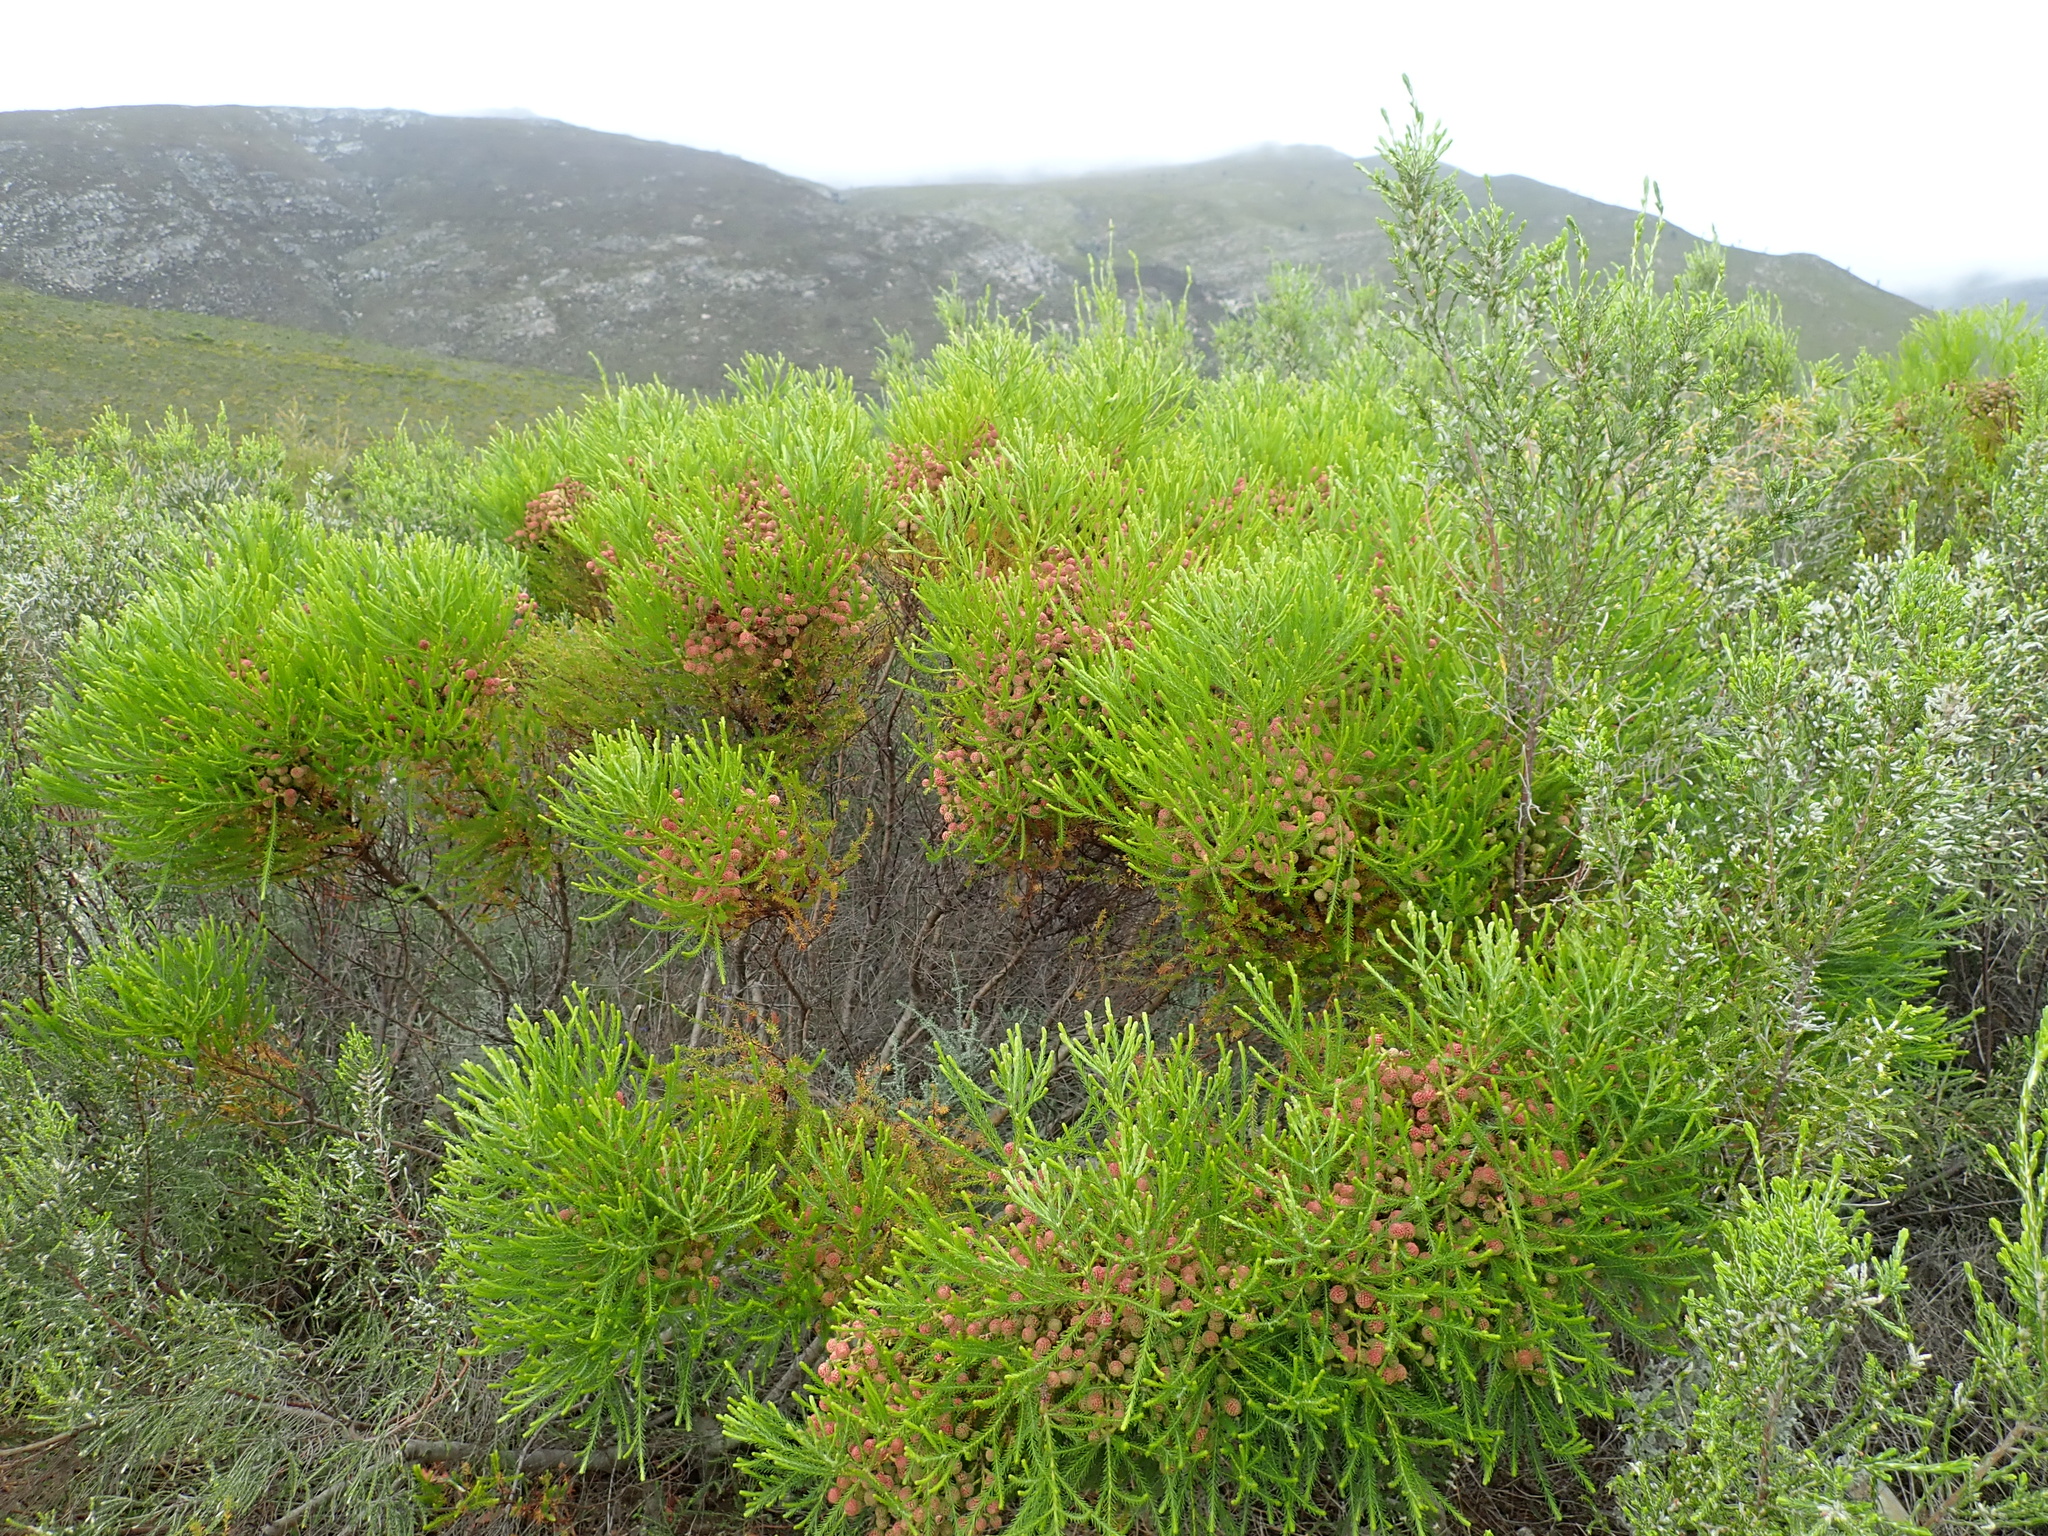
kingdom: Plantae
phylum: Tracheophyta
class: Magnoliopsida
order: Bruniales
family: Bruniaceae
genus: Berzelia
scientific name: Berzelia lanuginosa
